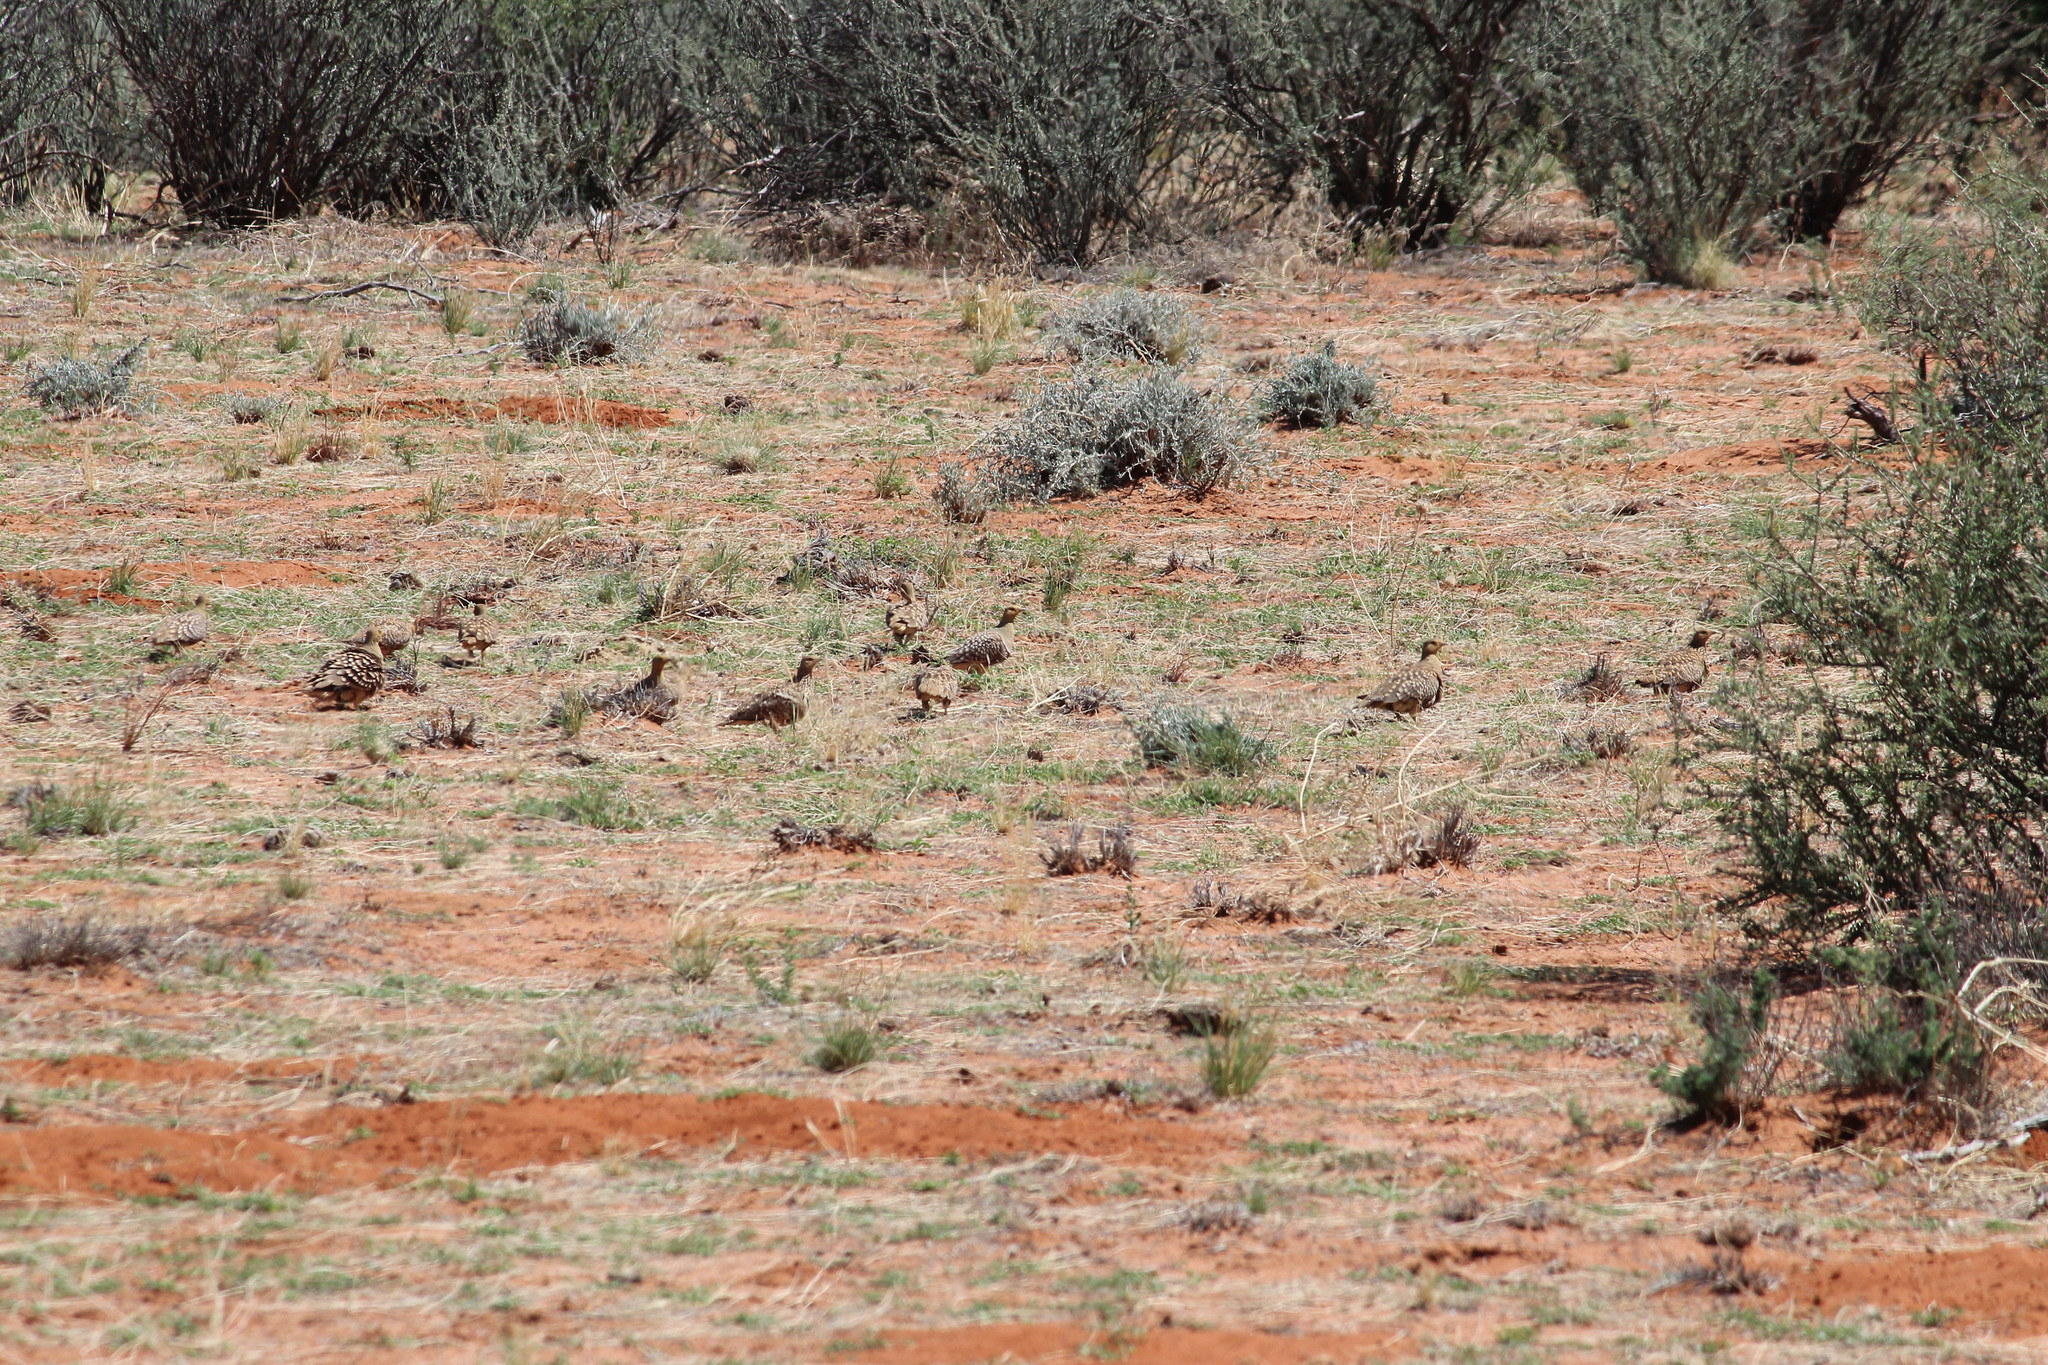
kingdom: Animalia
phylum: Chordata
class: Aves
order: Pteroclidiformes
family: Pteroclididae
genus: Pterocles
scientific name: Pterocles namaqua
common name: Namaqua sandgrouse
